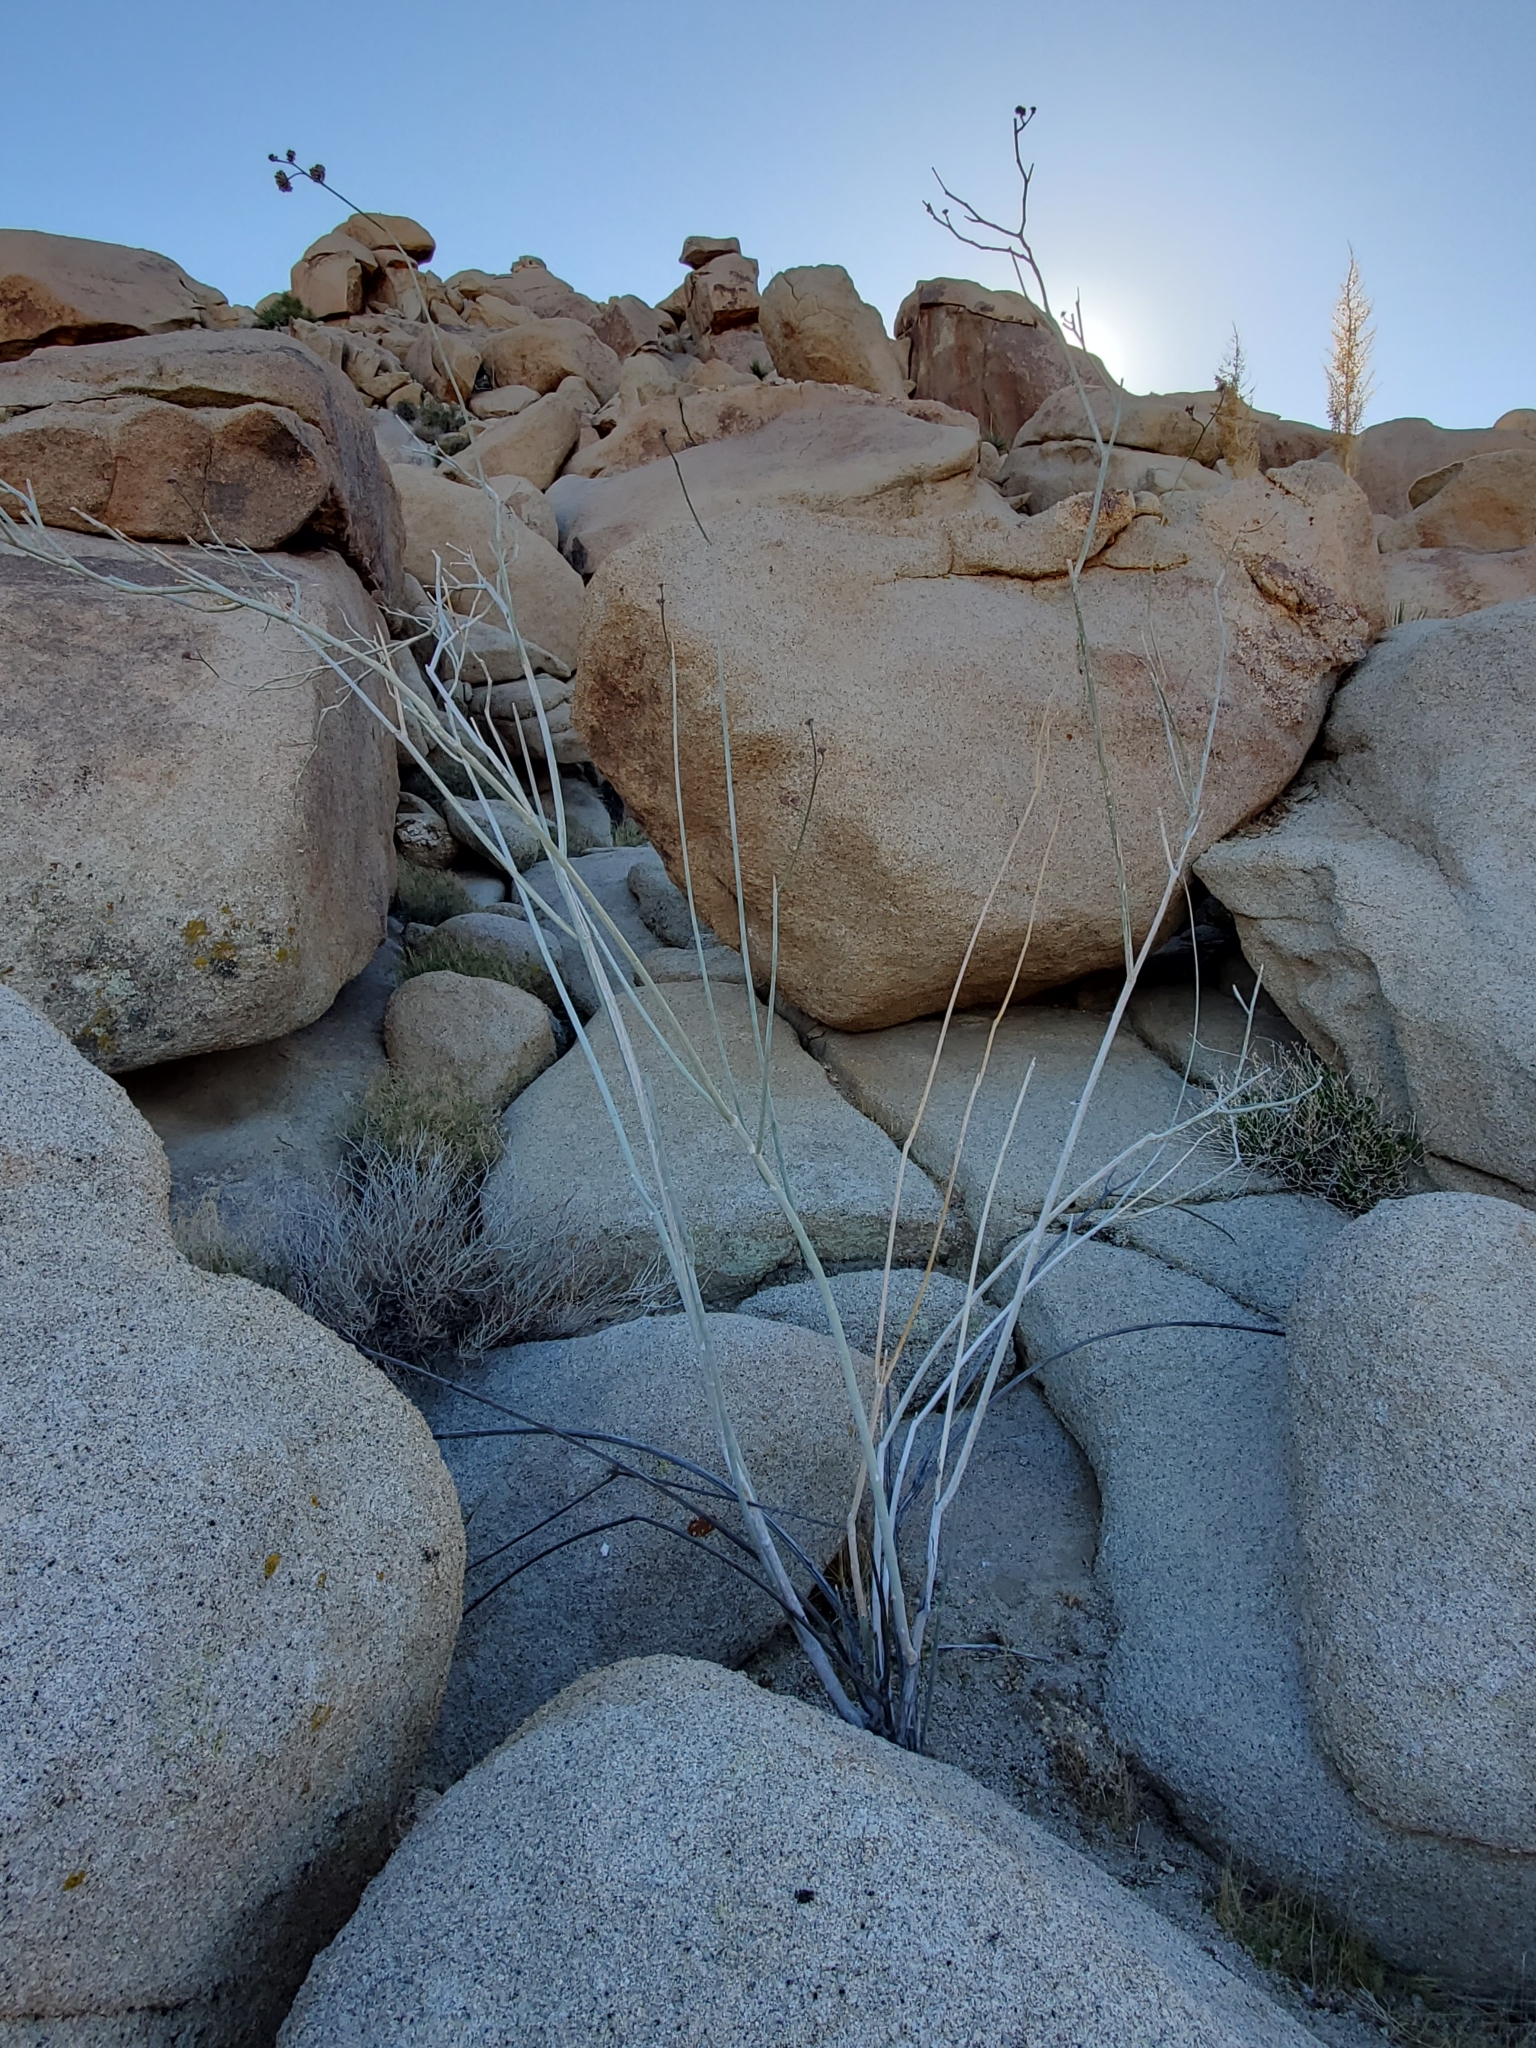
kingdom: Plantae
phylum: Tracheophyta
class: Magnoliopsida
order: Gentianales
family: Apocynaceae
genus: Asclepias
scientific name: Asclepias albicans
